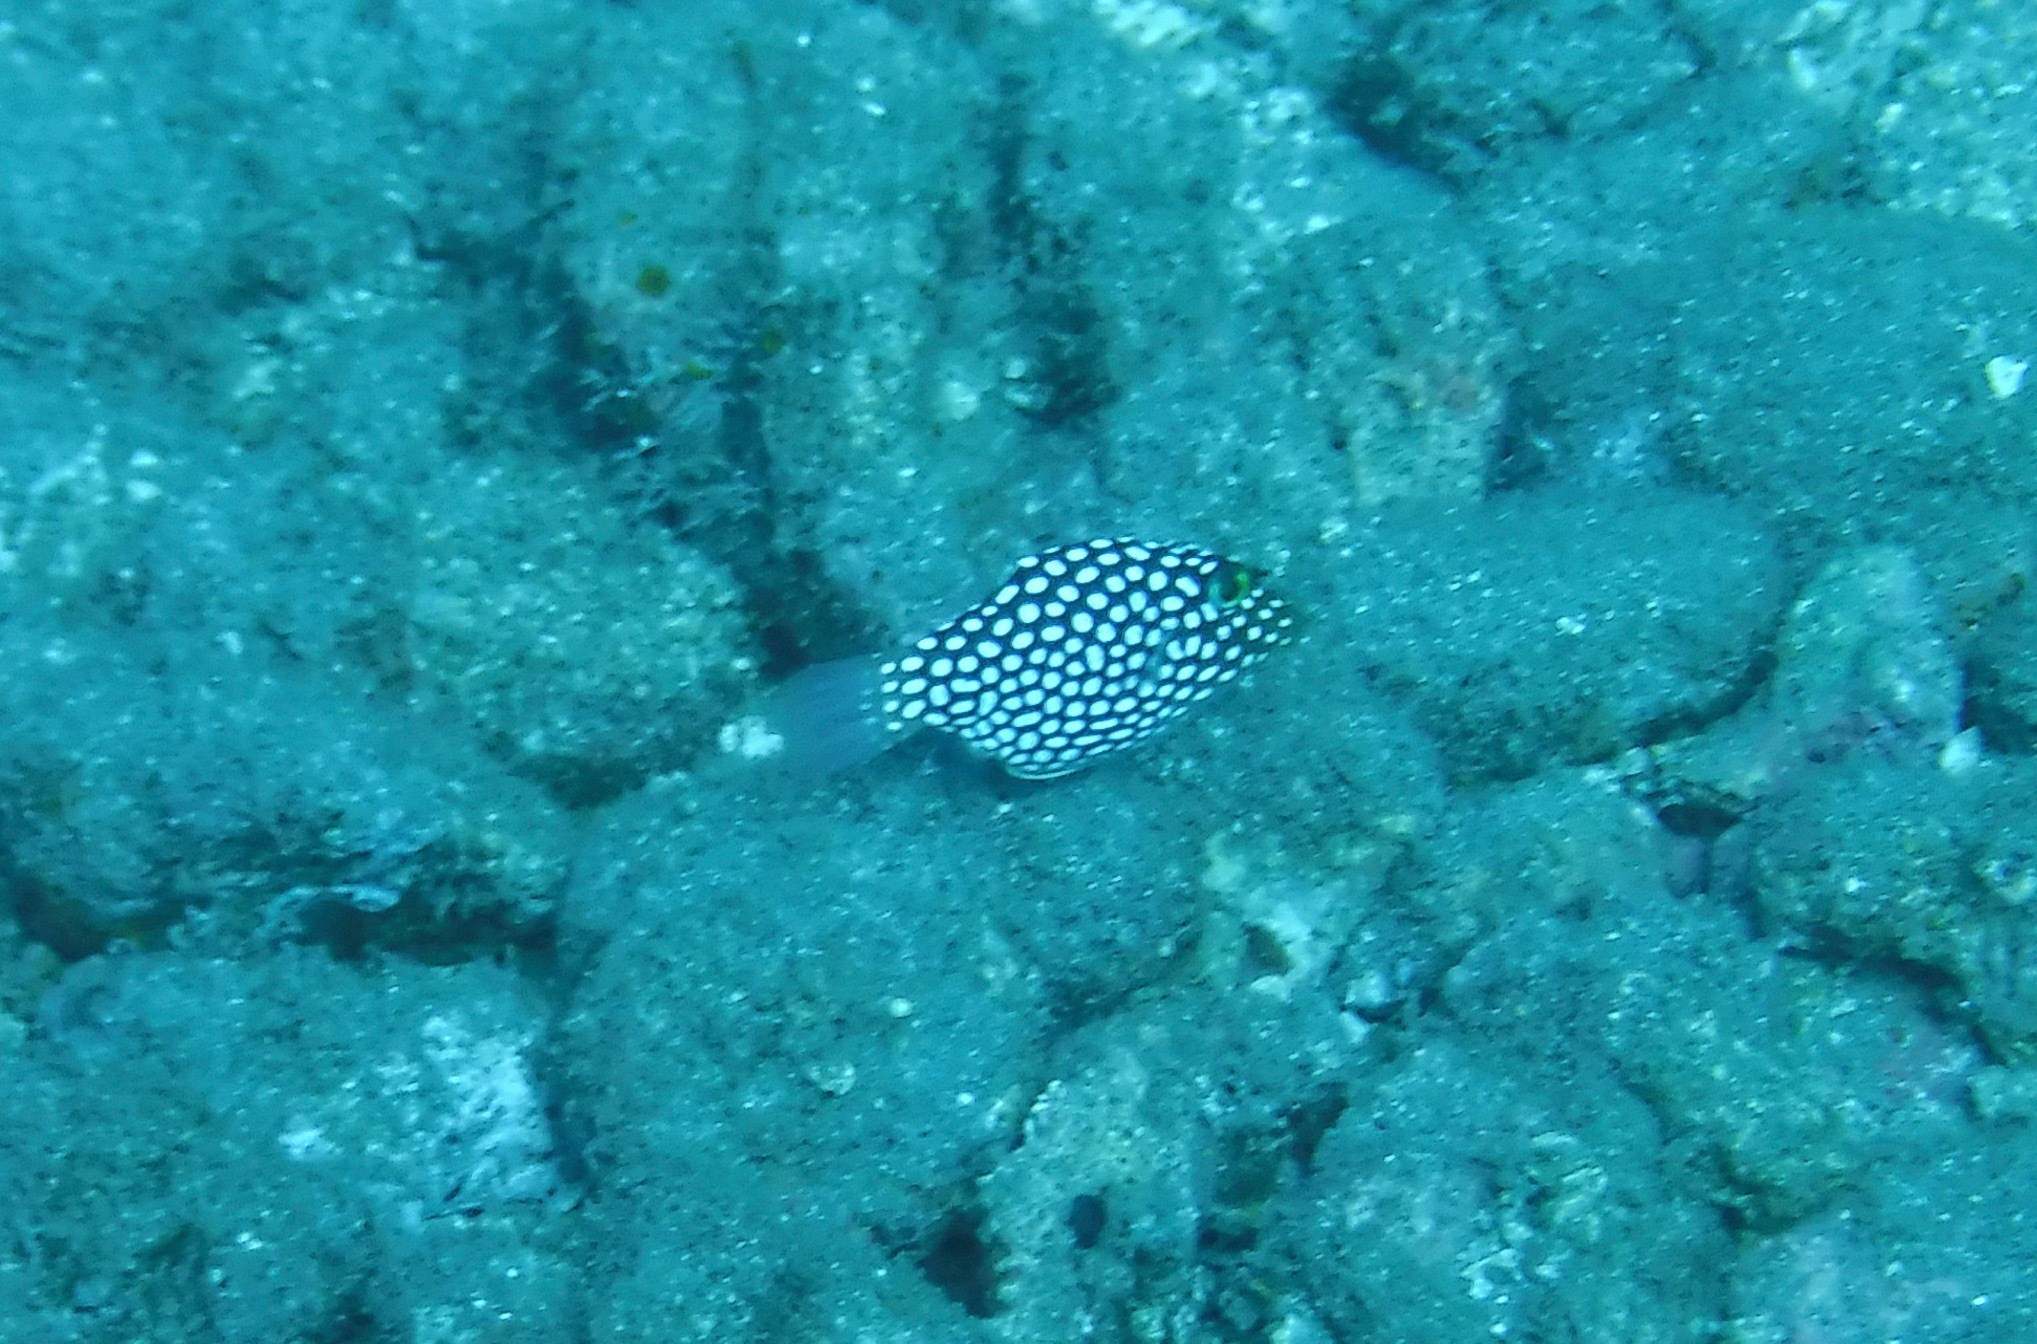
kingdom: Animalia
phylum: Chordata
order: Tetraodontiformes
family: Tetraodontidae
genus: Canthigaster
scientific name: Canthigaster jactator
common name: Hawaiian whitespotted toby
